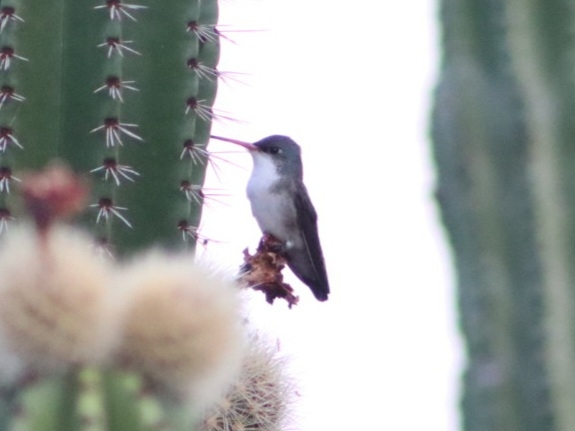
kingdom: Animalia
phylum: Chordata
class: Aves
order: Apodiformes
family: Trochilidae
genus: Leucolia
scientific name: Leucolia violiceps
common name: Violet-crowned hummingbird
